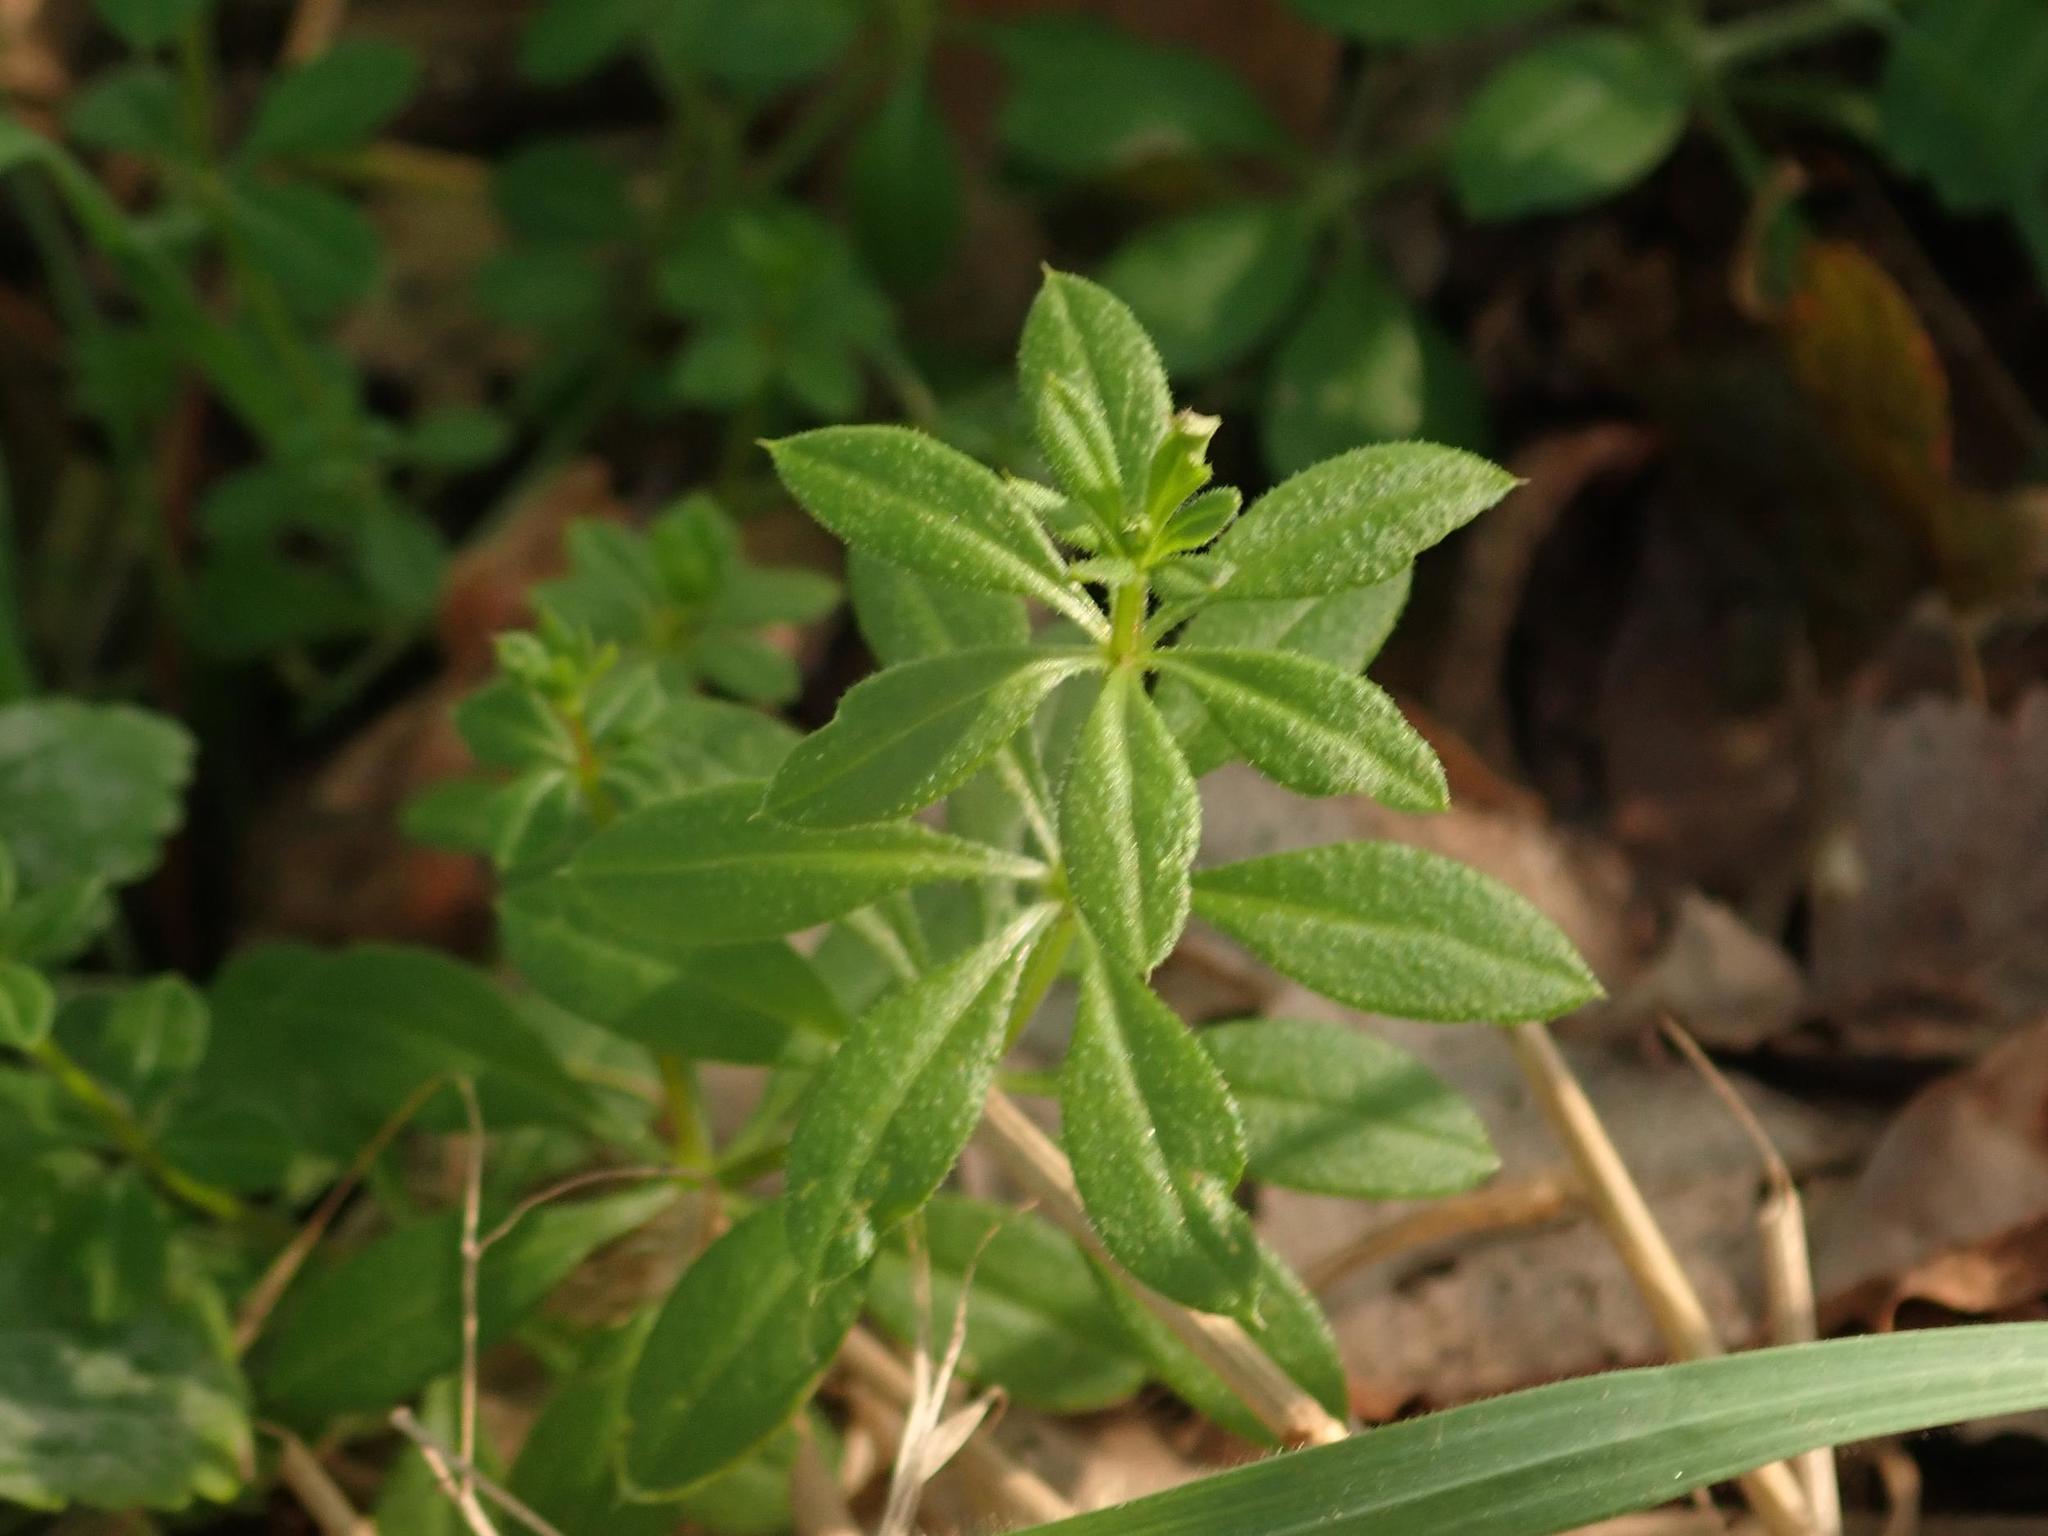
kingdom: Plantae
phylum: Tracheophyta
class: Magnoliopsida
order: Gentianales
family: Rubiaceae
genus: Galium
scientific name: Galium aparine
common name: Cleavers
